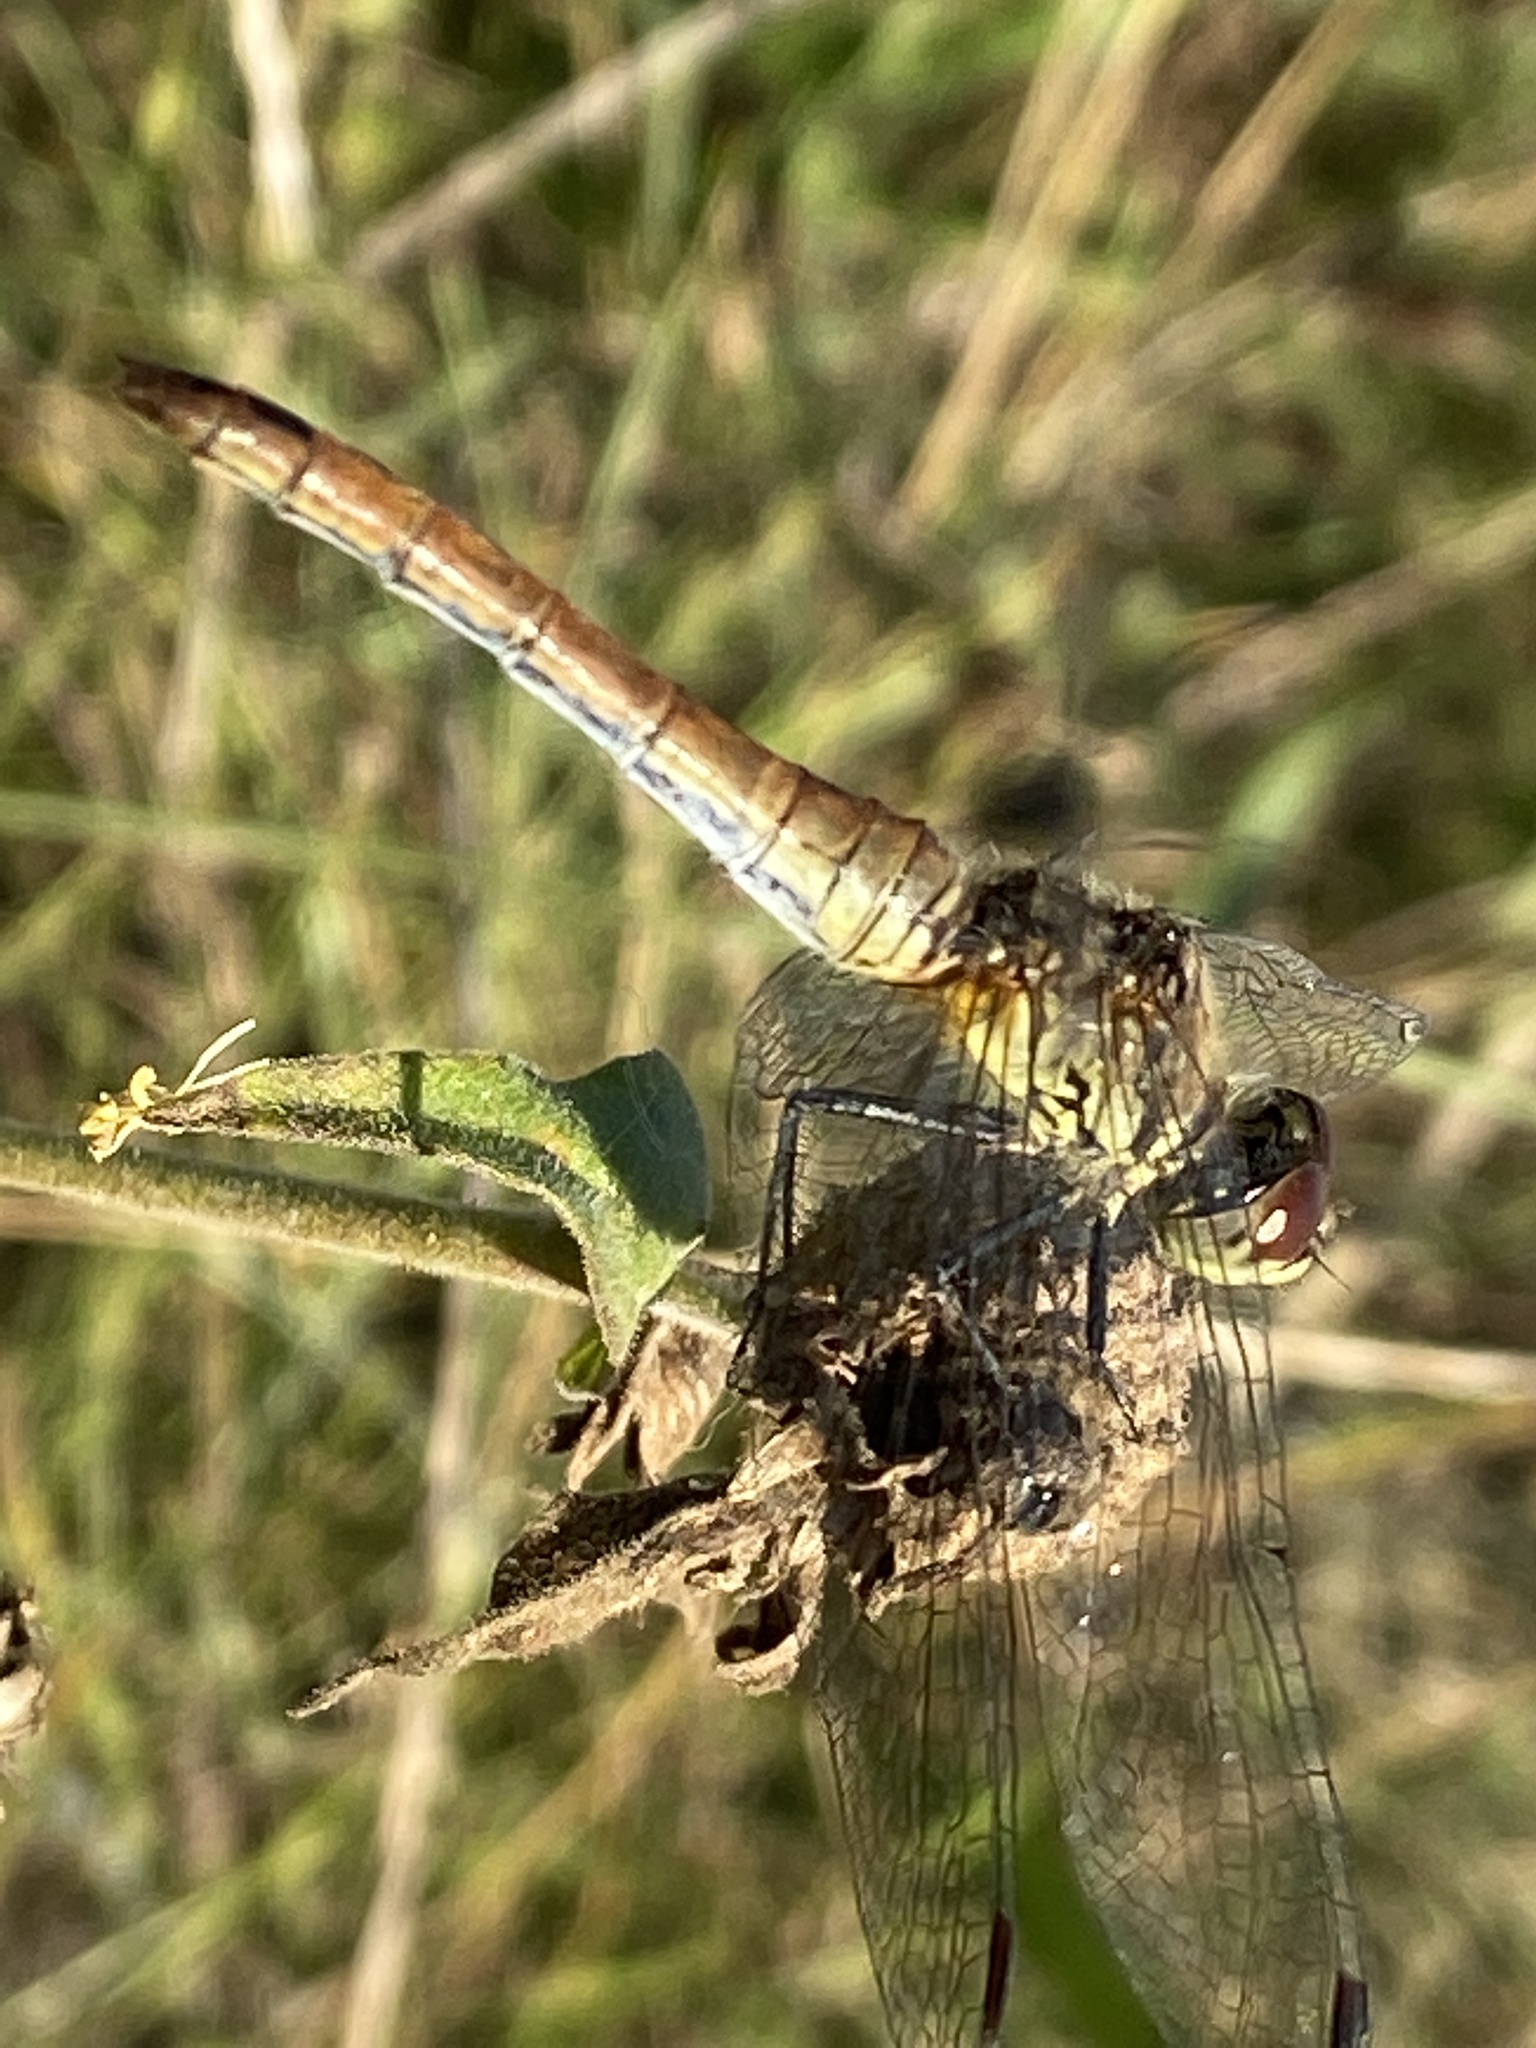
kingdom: Animalia
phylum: Arthropoda
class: Insecta
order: Odonata
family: Libellulidae
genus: Sympetrum
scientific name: Sympetrum sanguineum
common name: Ruddy darter
